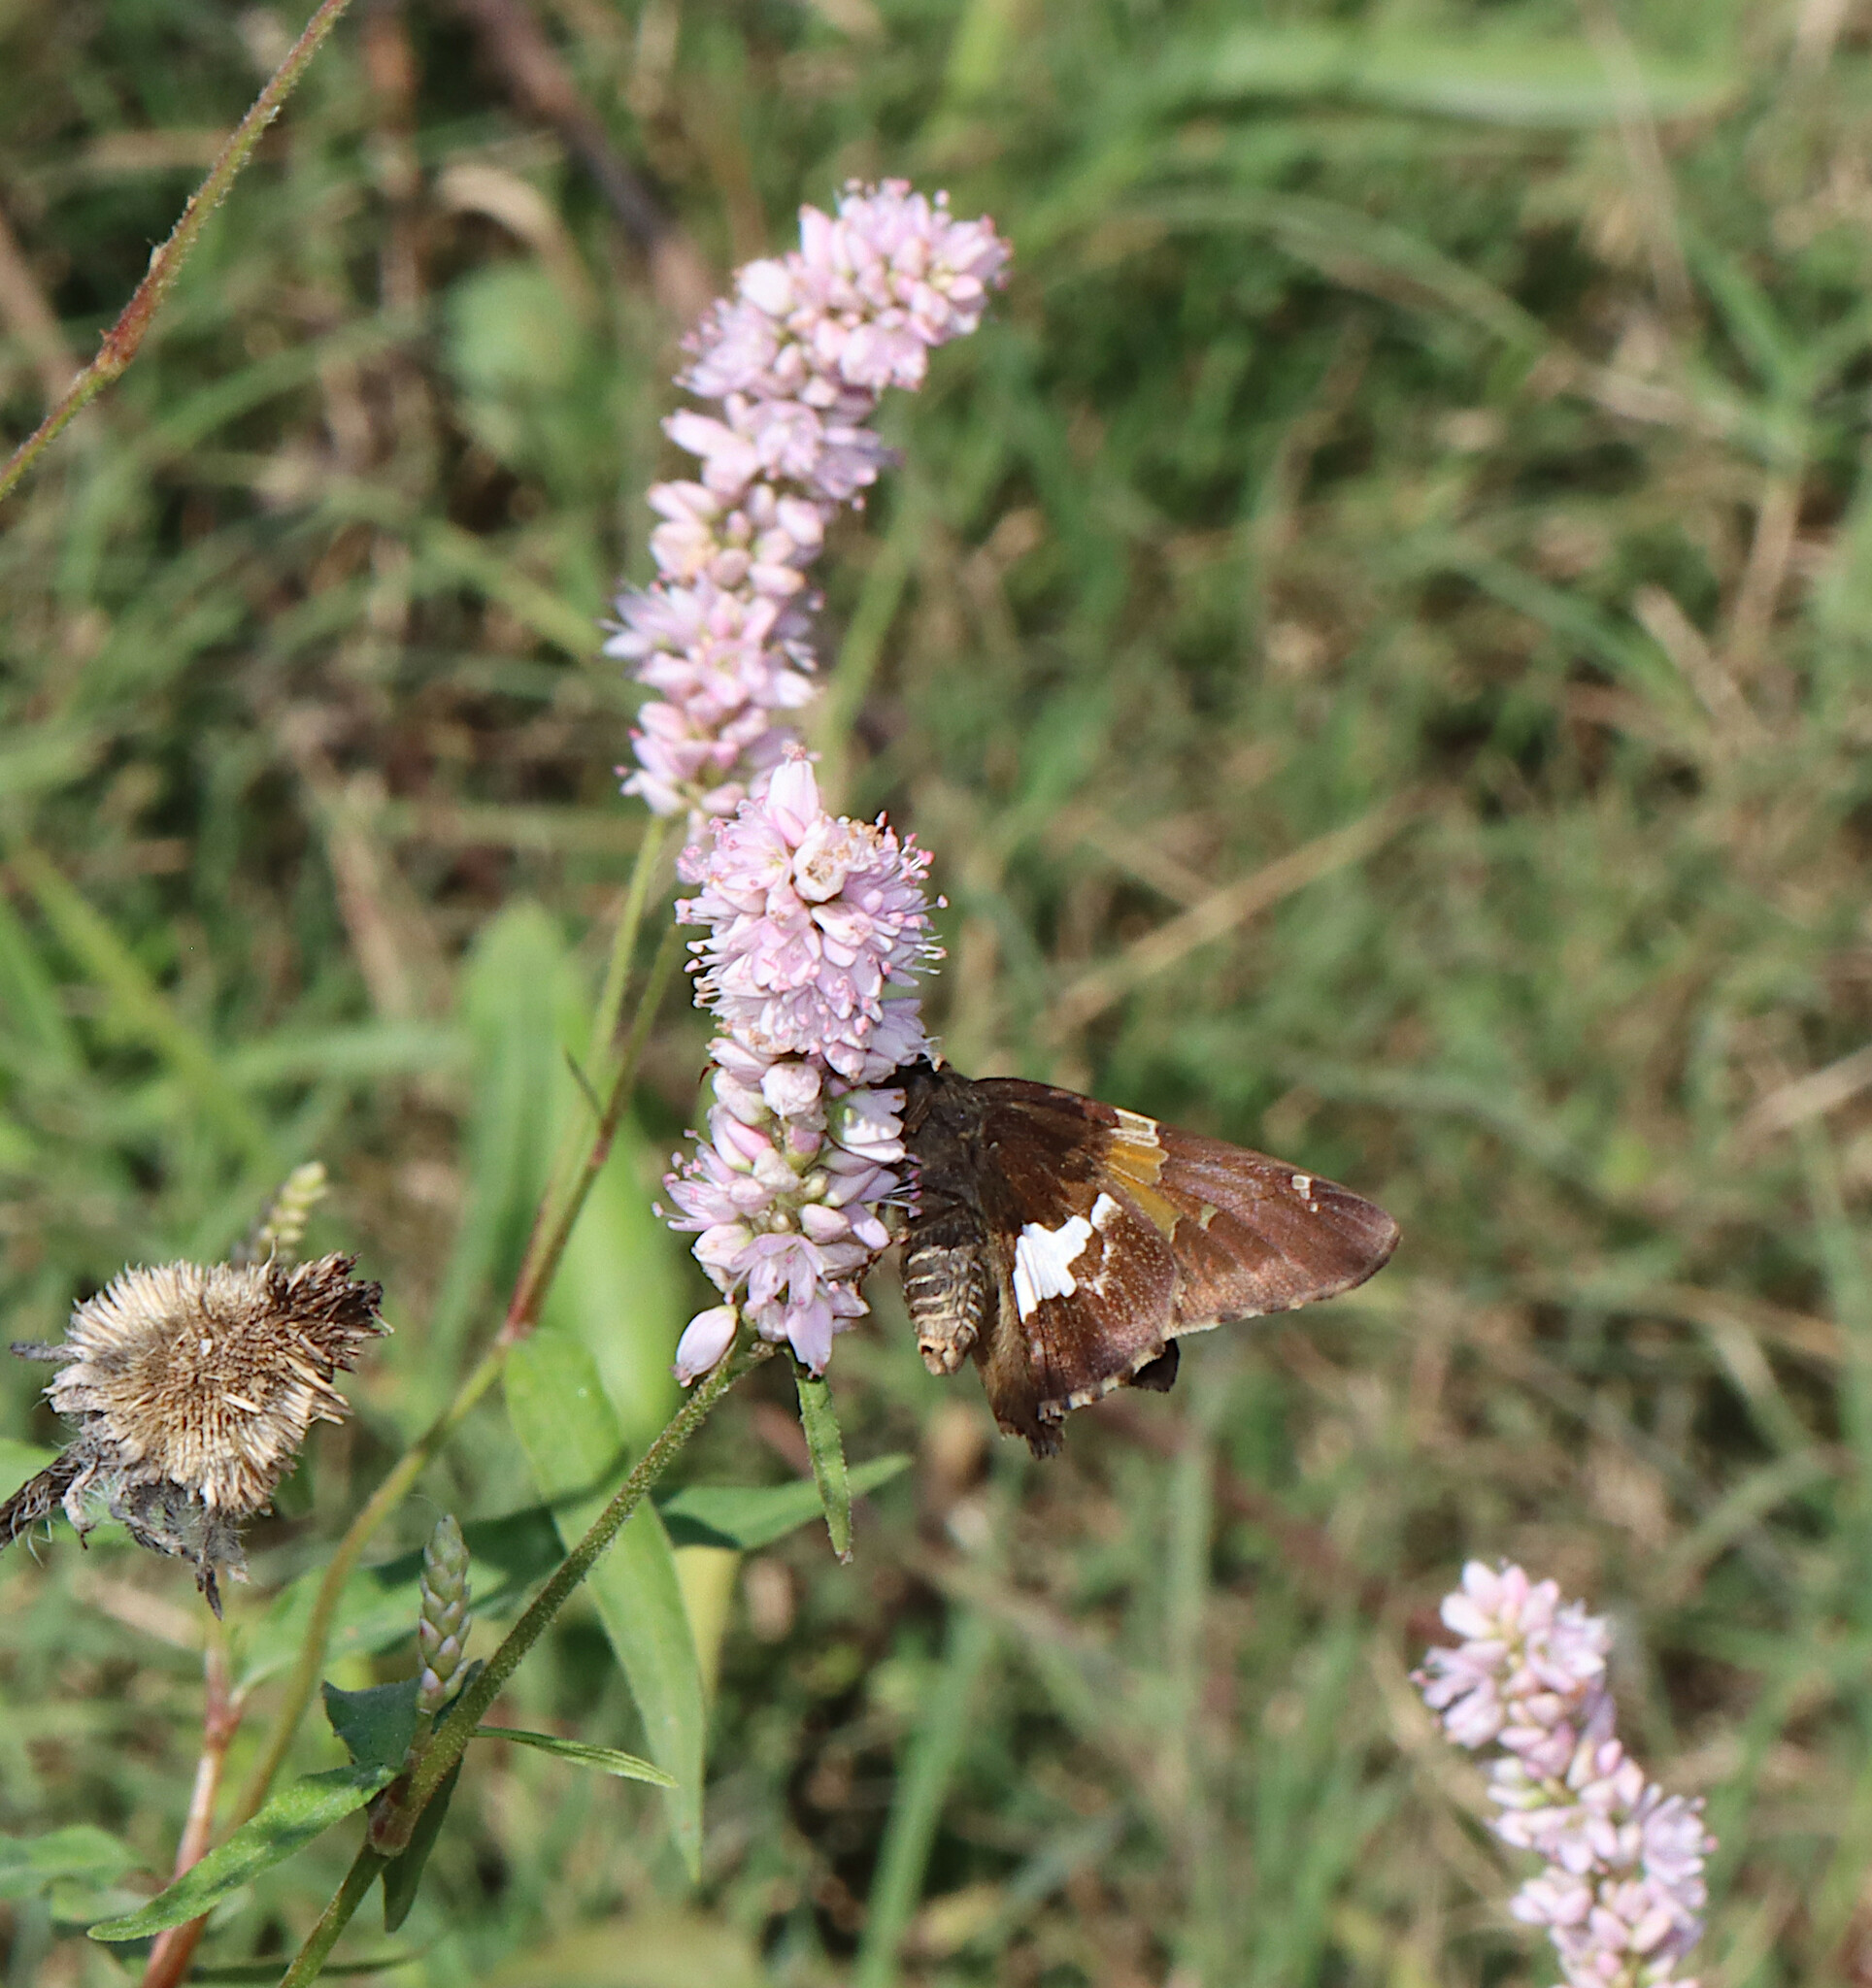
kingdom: Animalia
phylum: Arthropoda
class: Insecta
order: Lepidoptera
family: Hesperiidae
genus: Epargyreus
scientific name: Epargyreus clarus
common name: Silver-spotted skipper
